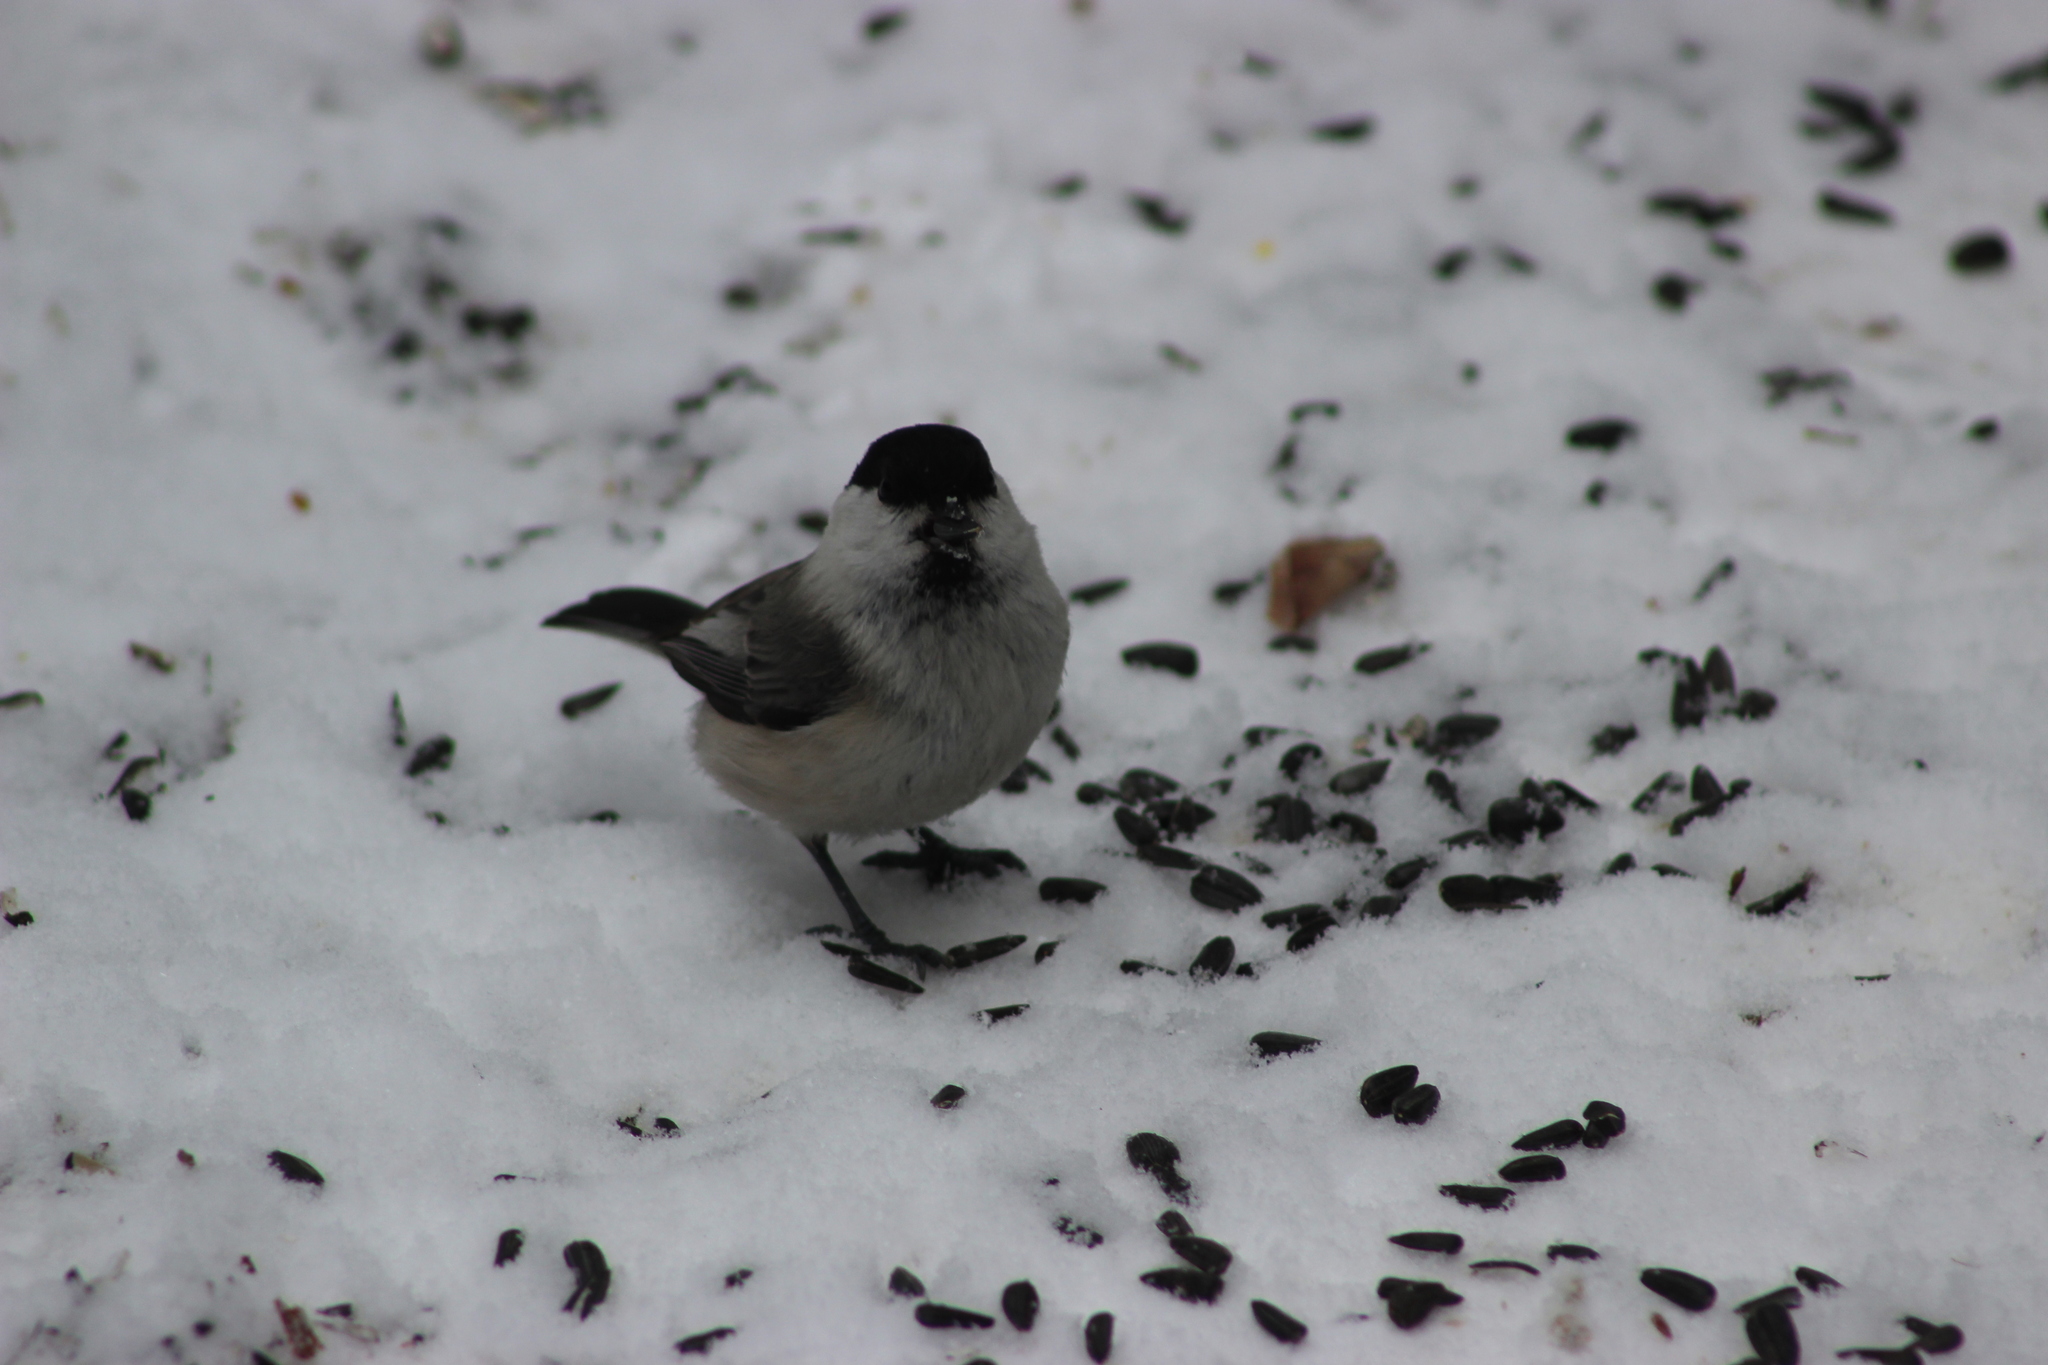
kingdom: Animalia
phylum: Chordata
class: Aves
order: Passeriformes
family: Paridae
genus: Poecile
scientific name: Poecile montanus
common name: Willow tit
